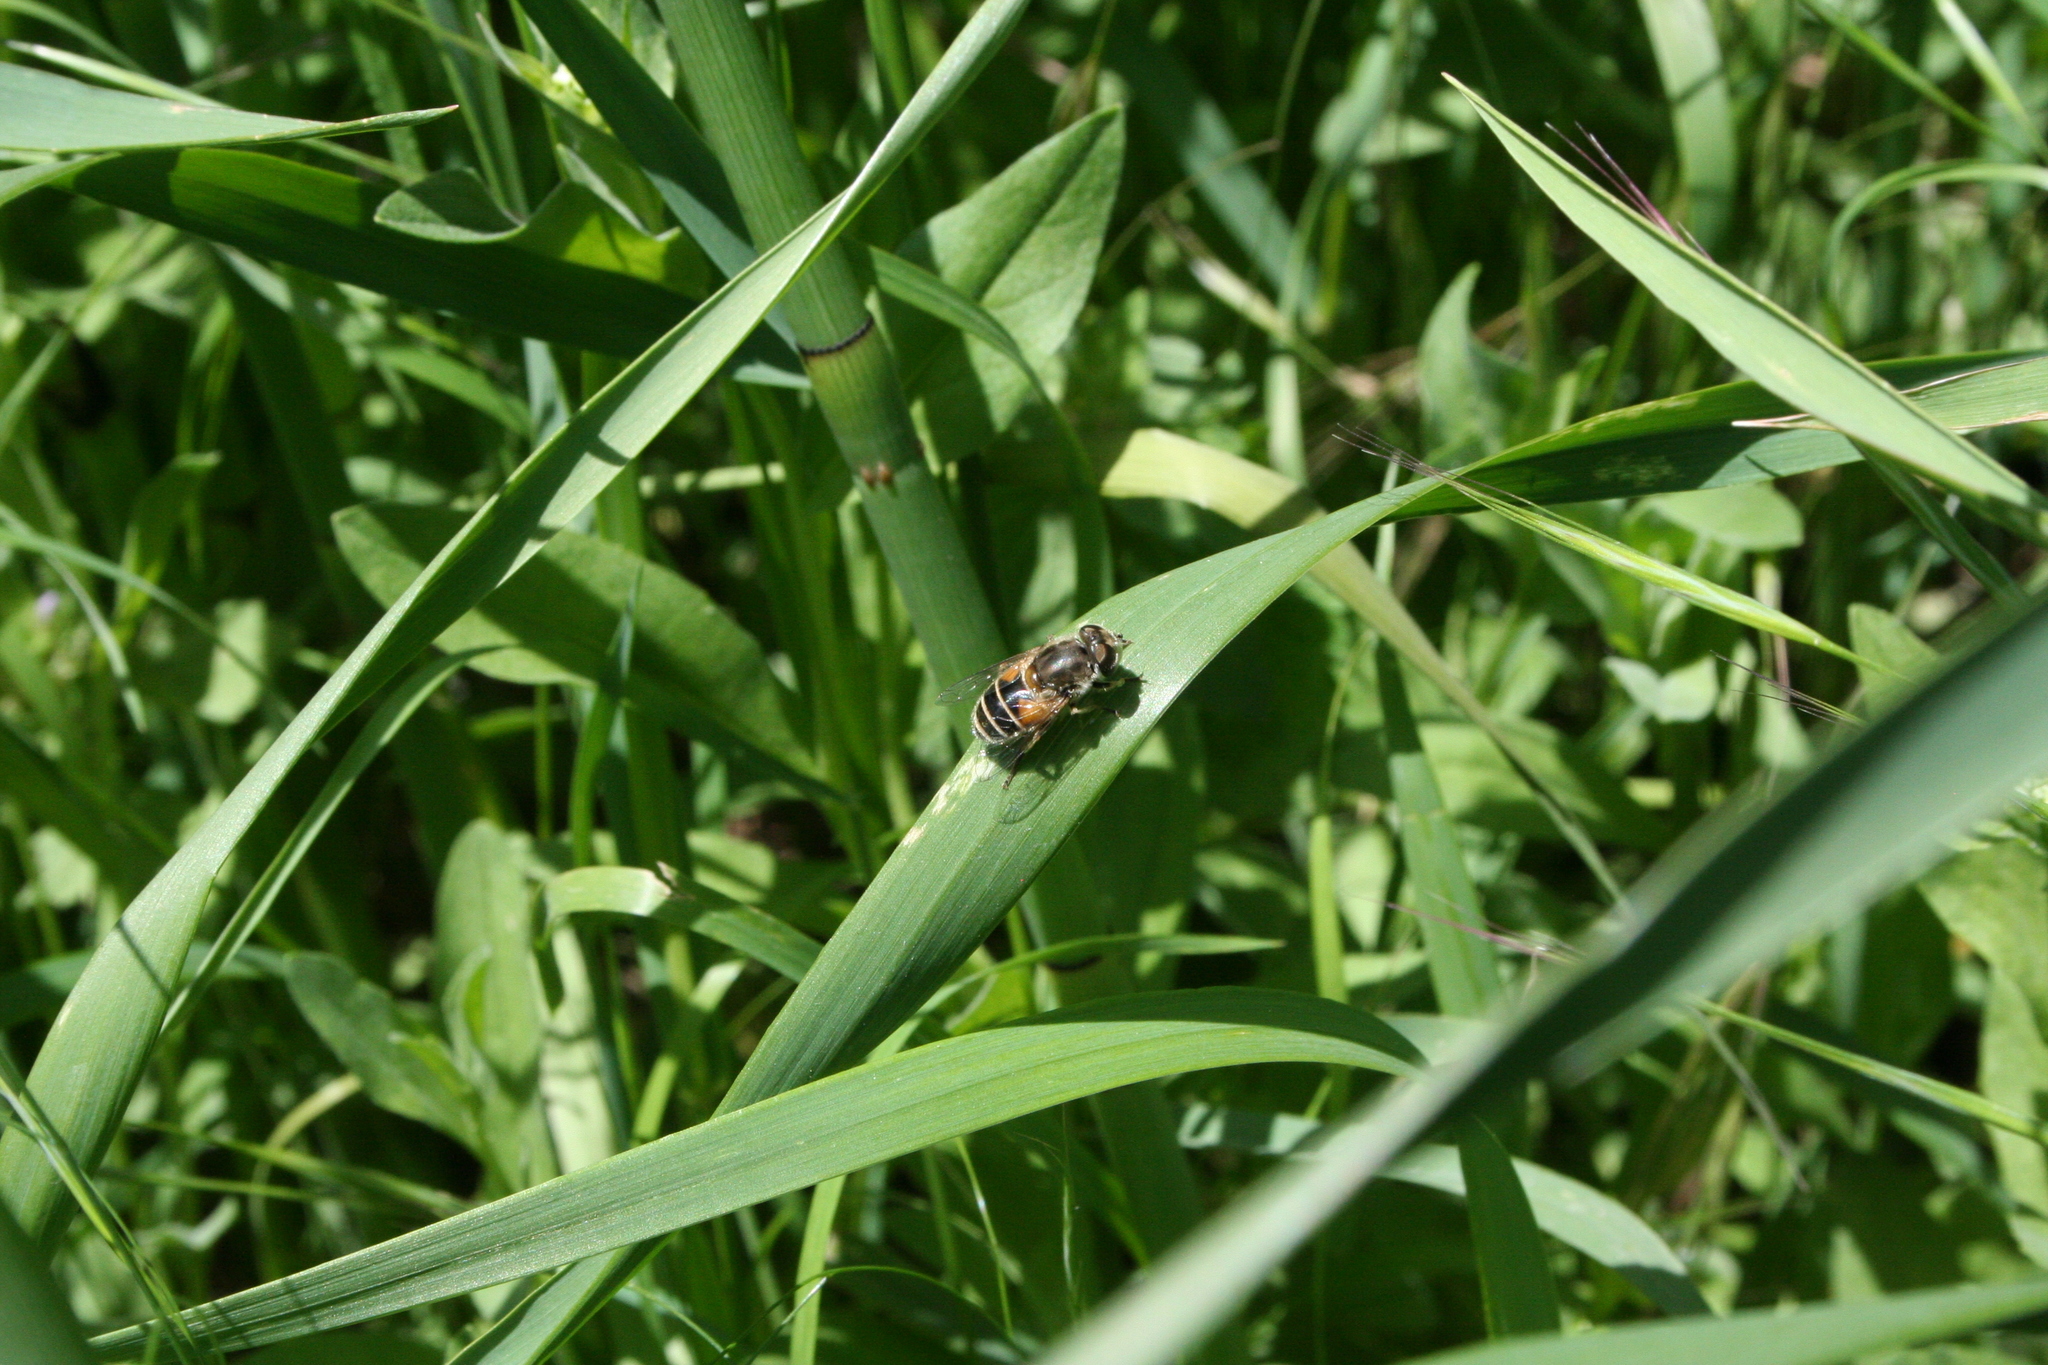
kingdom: Animalia
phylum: Arthropoda
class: Insecta
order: Diptera
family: Syrphidae
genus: Eristalis
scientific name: Eristalis arbustorum
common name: Hover fly
